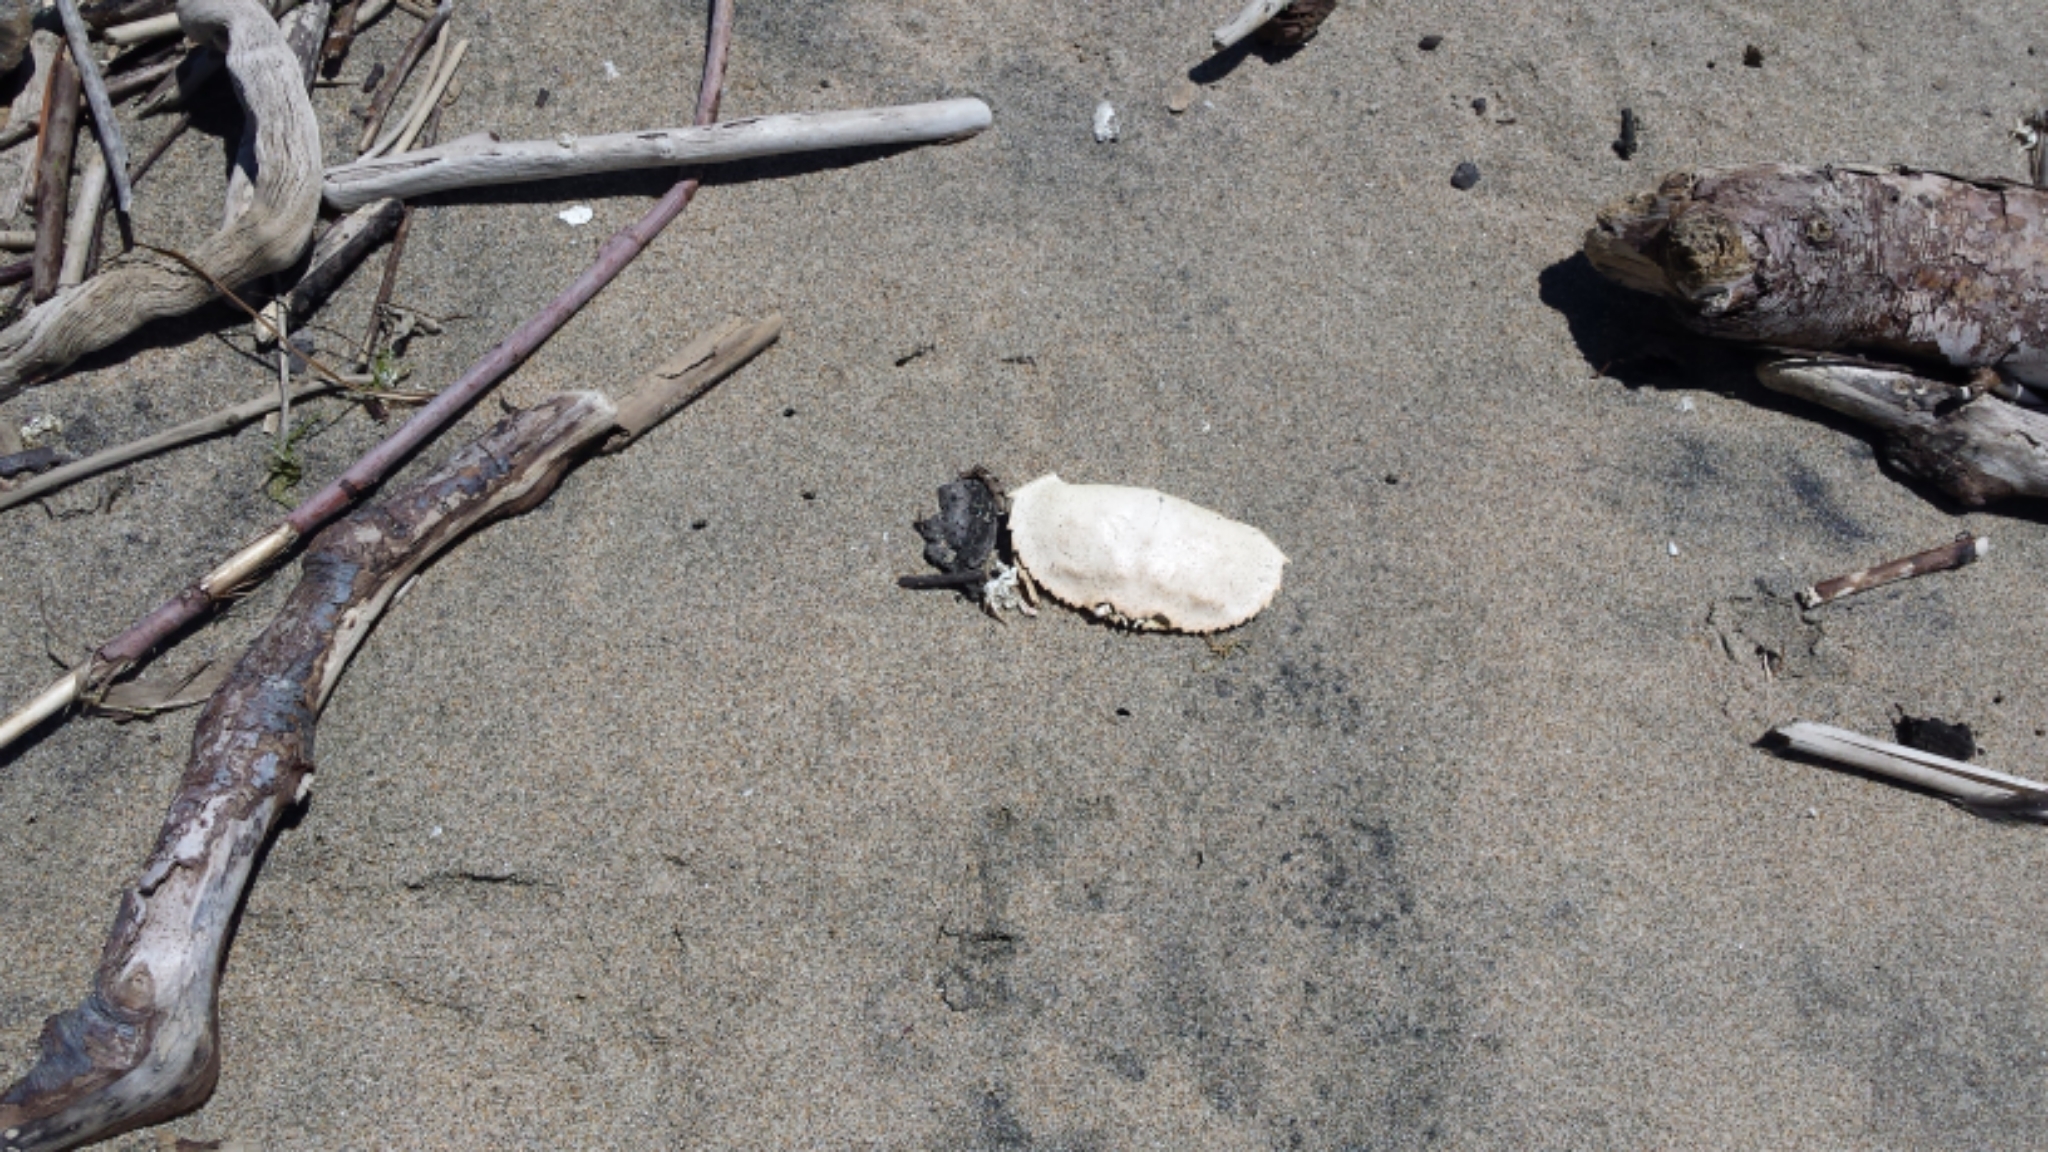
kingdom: Animalia
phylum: Arthropoda
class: Malacostraca
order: Decapoda
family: Cancridae
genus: Metacarcinus
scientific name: Metacarcinus magister
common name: Californian crab
